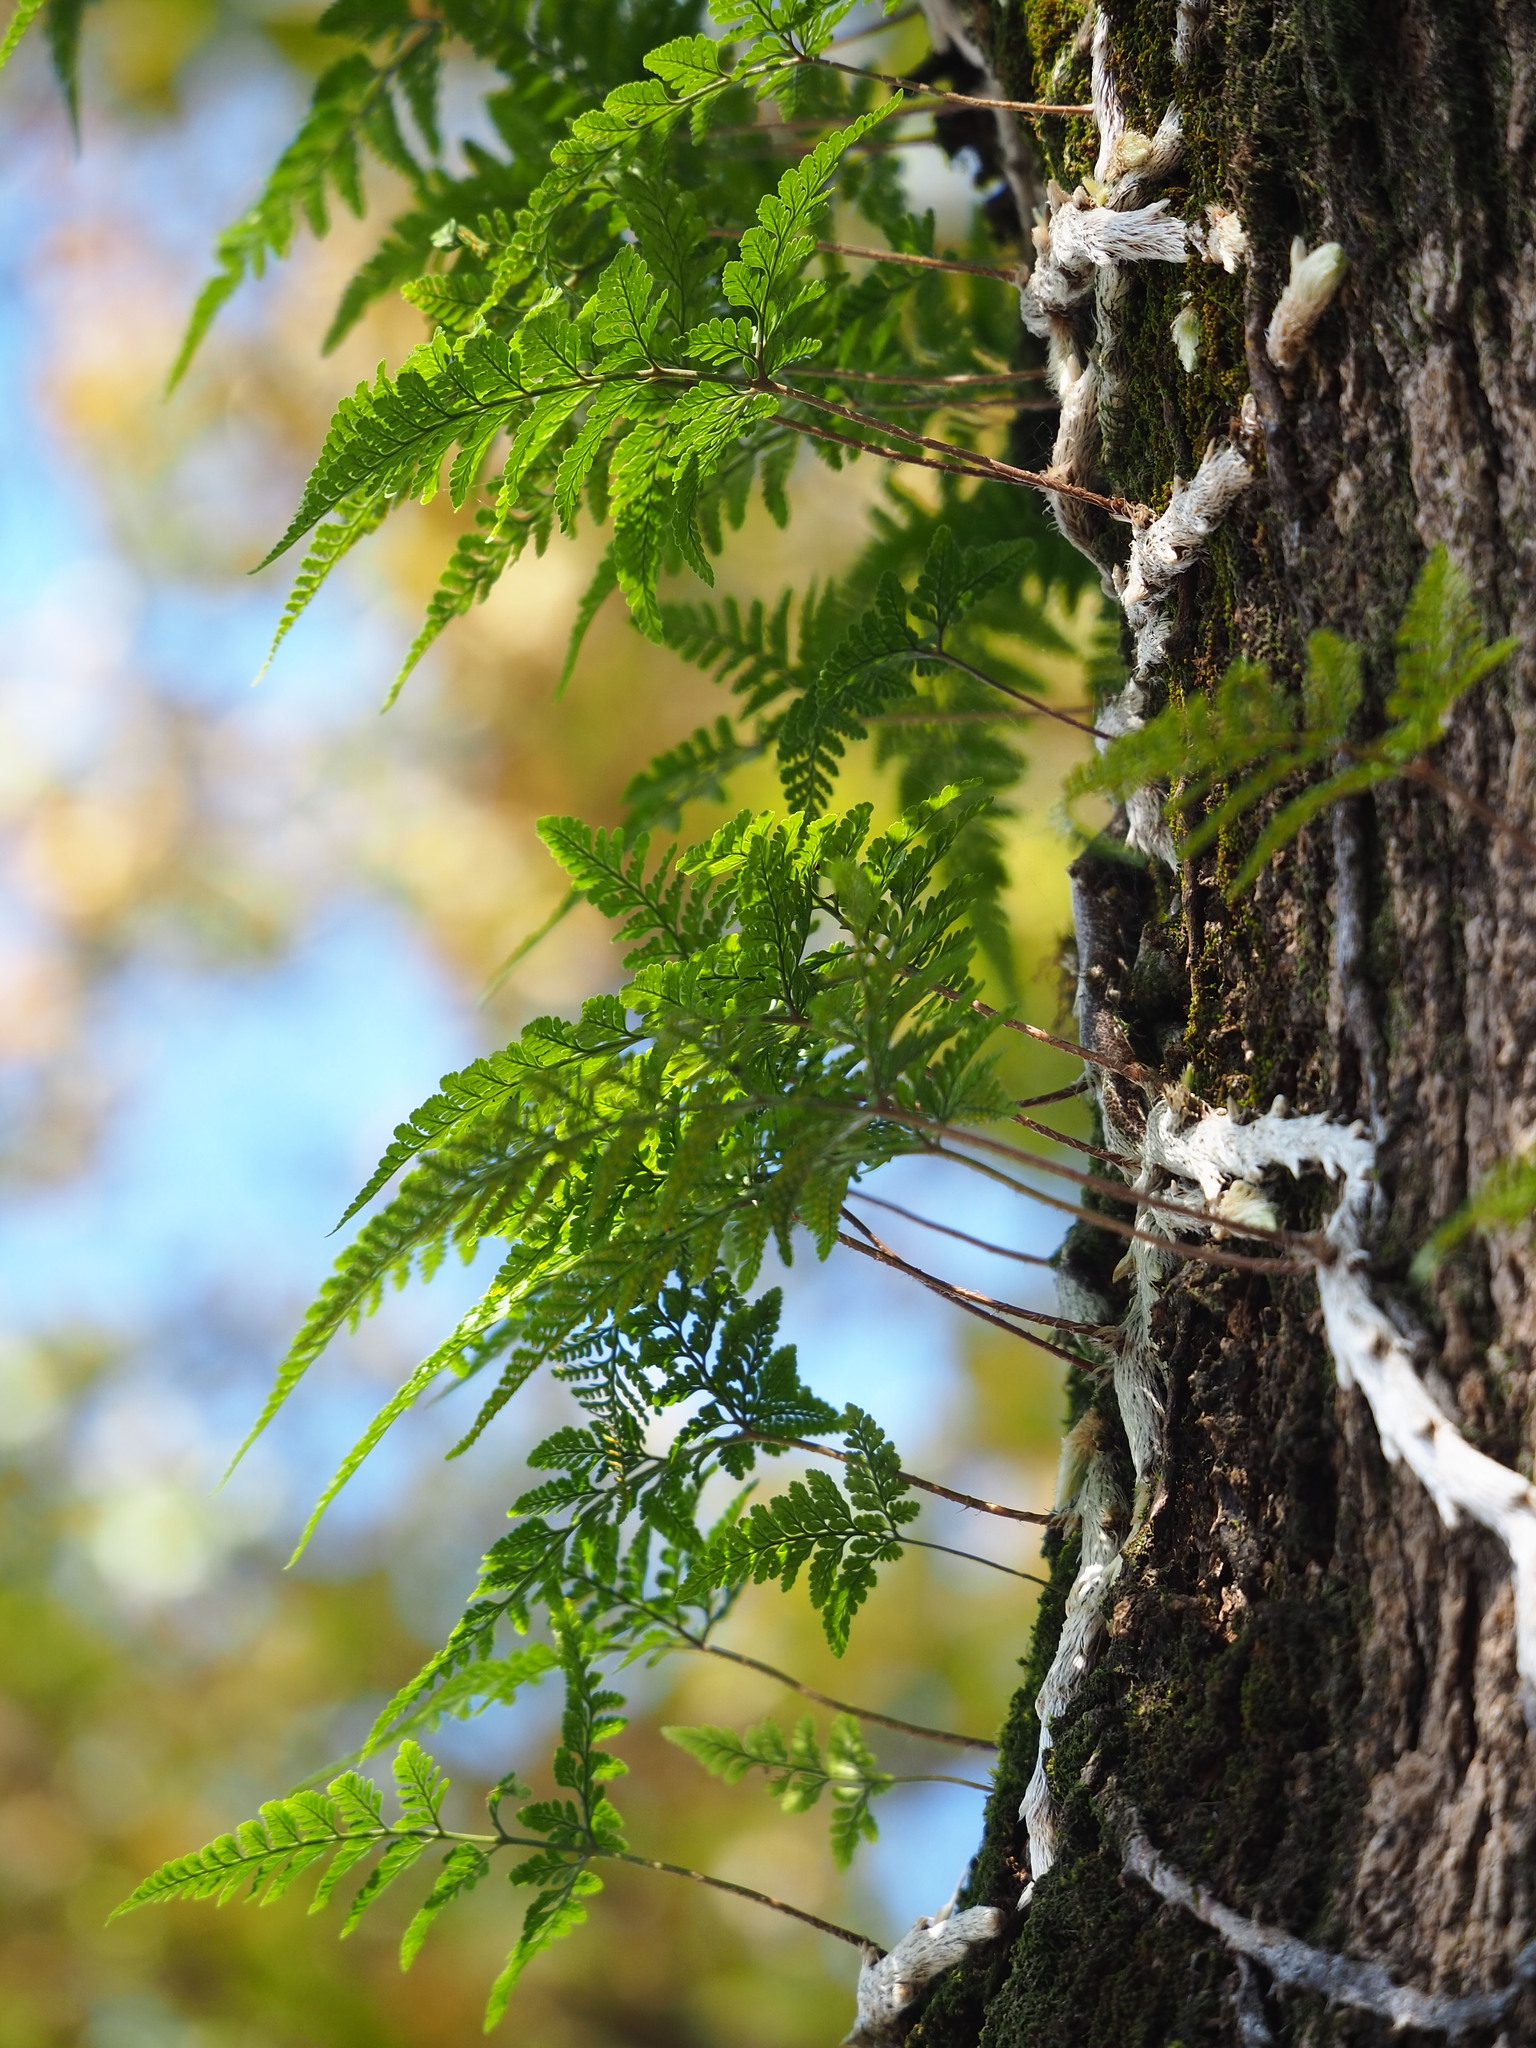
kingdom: Plantae
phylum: Tracheophyta
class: Polypodiopsida
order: Polypodiales
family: Davalliaceae
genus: Davallia
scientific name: Davallia griffithiana
